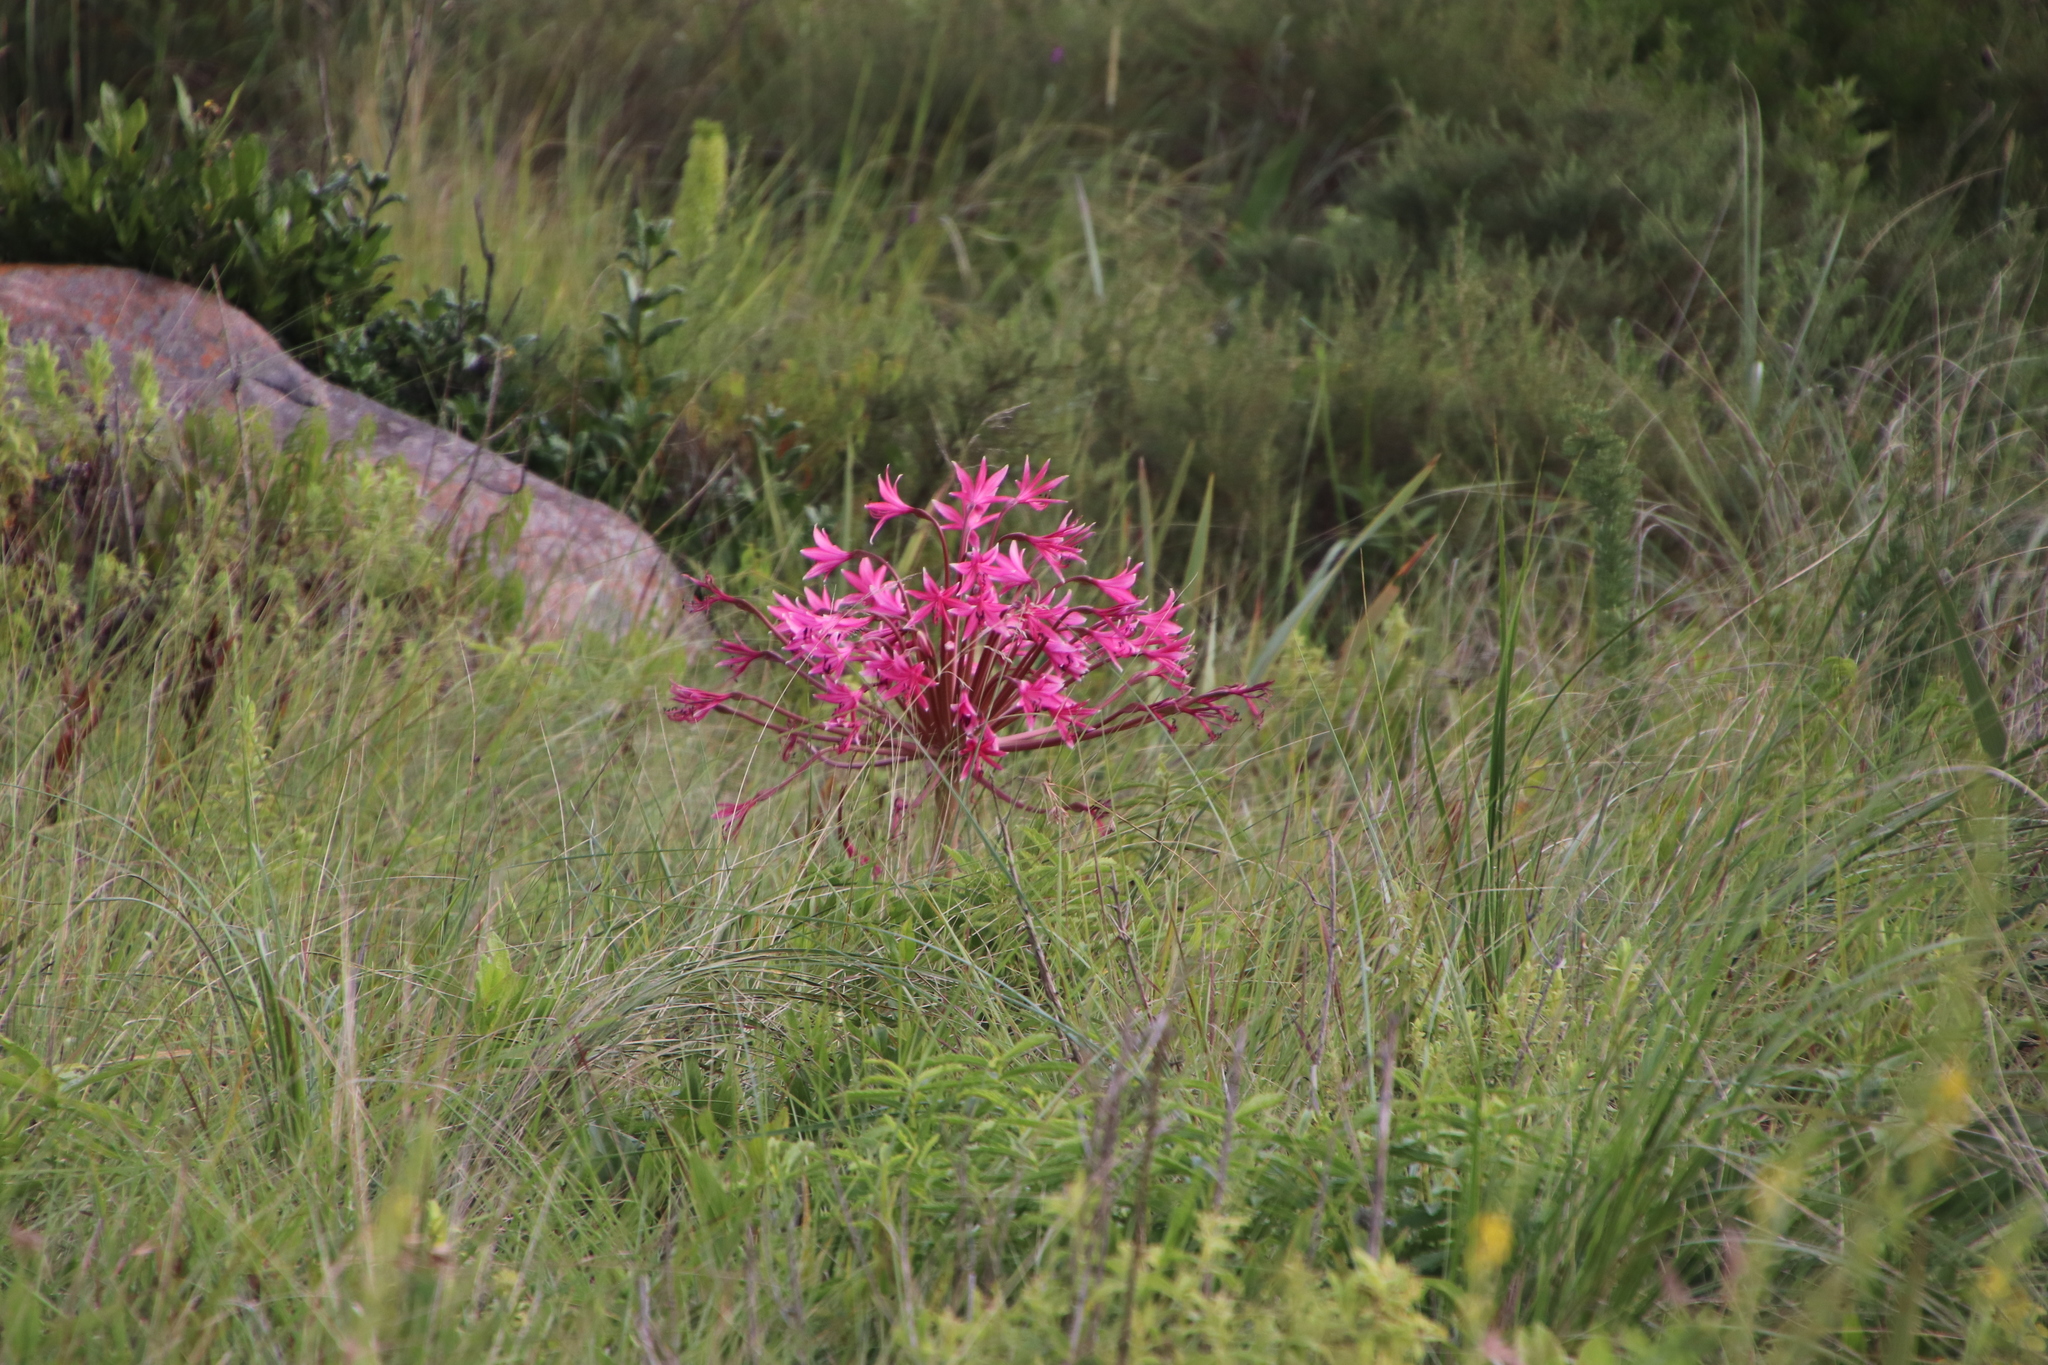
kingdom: Plantae
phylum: Tracheophyta
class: Liliopsida
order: Asparagales
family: Amaryllidaceae
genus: Brunsvigia
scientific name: Brunsvigia radulosa
